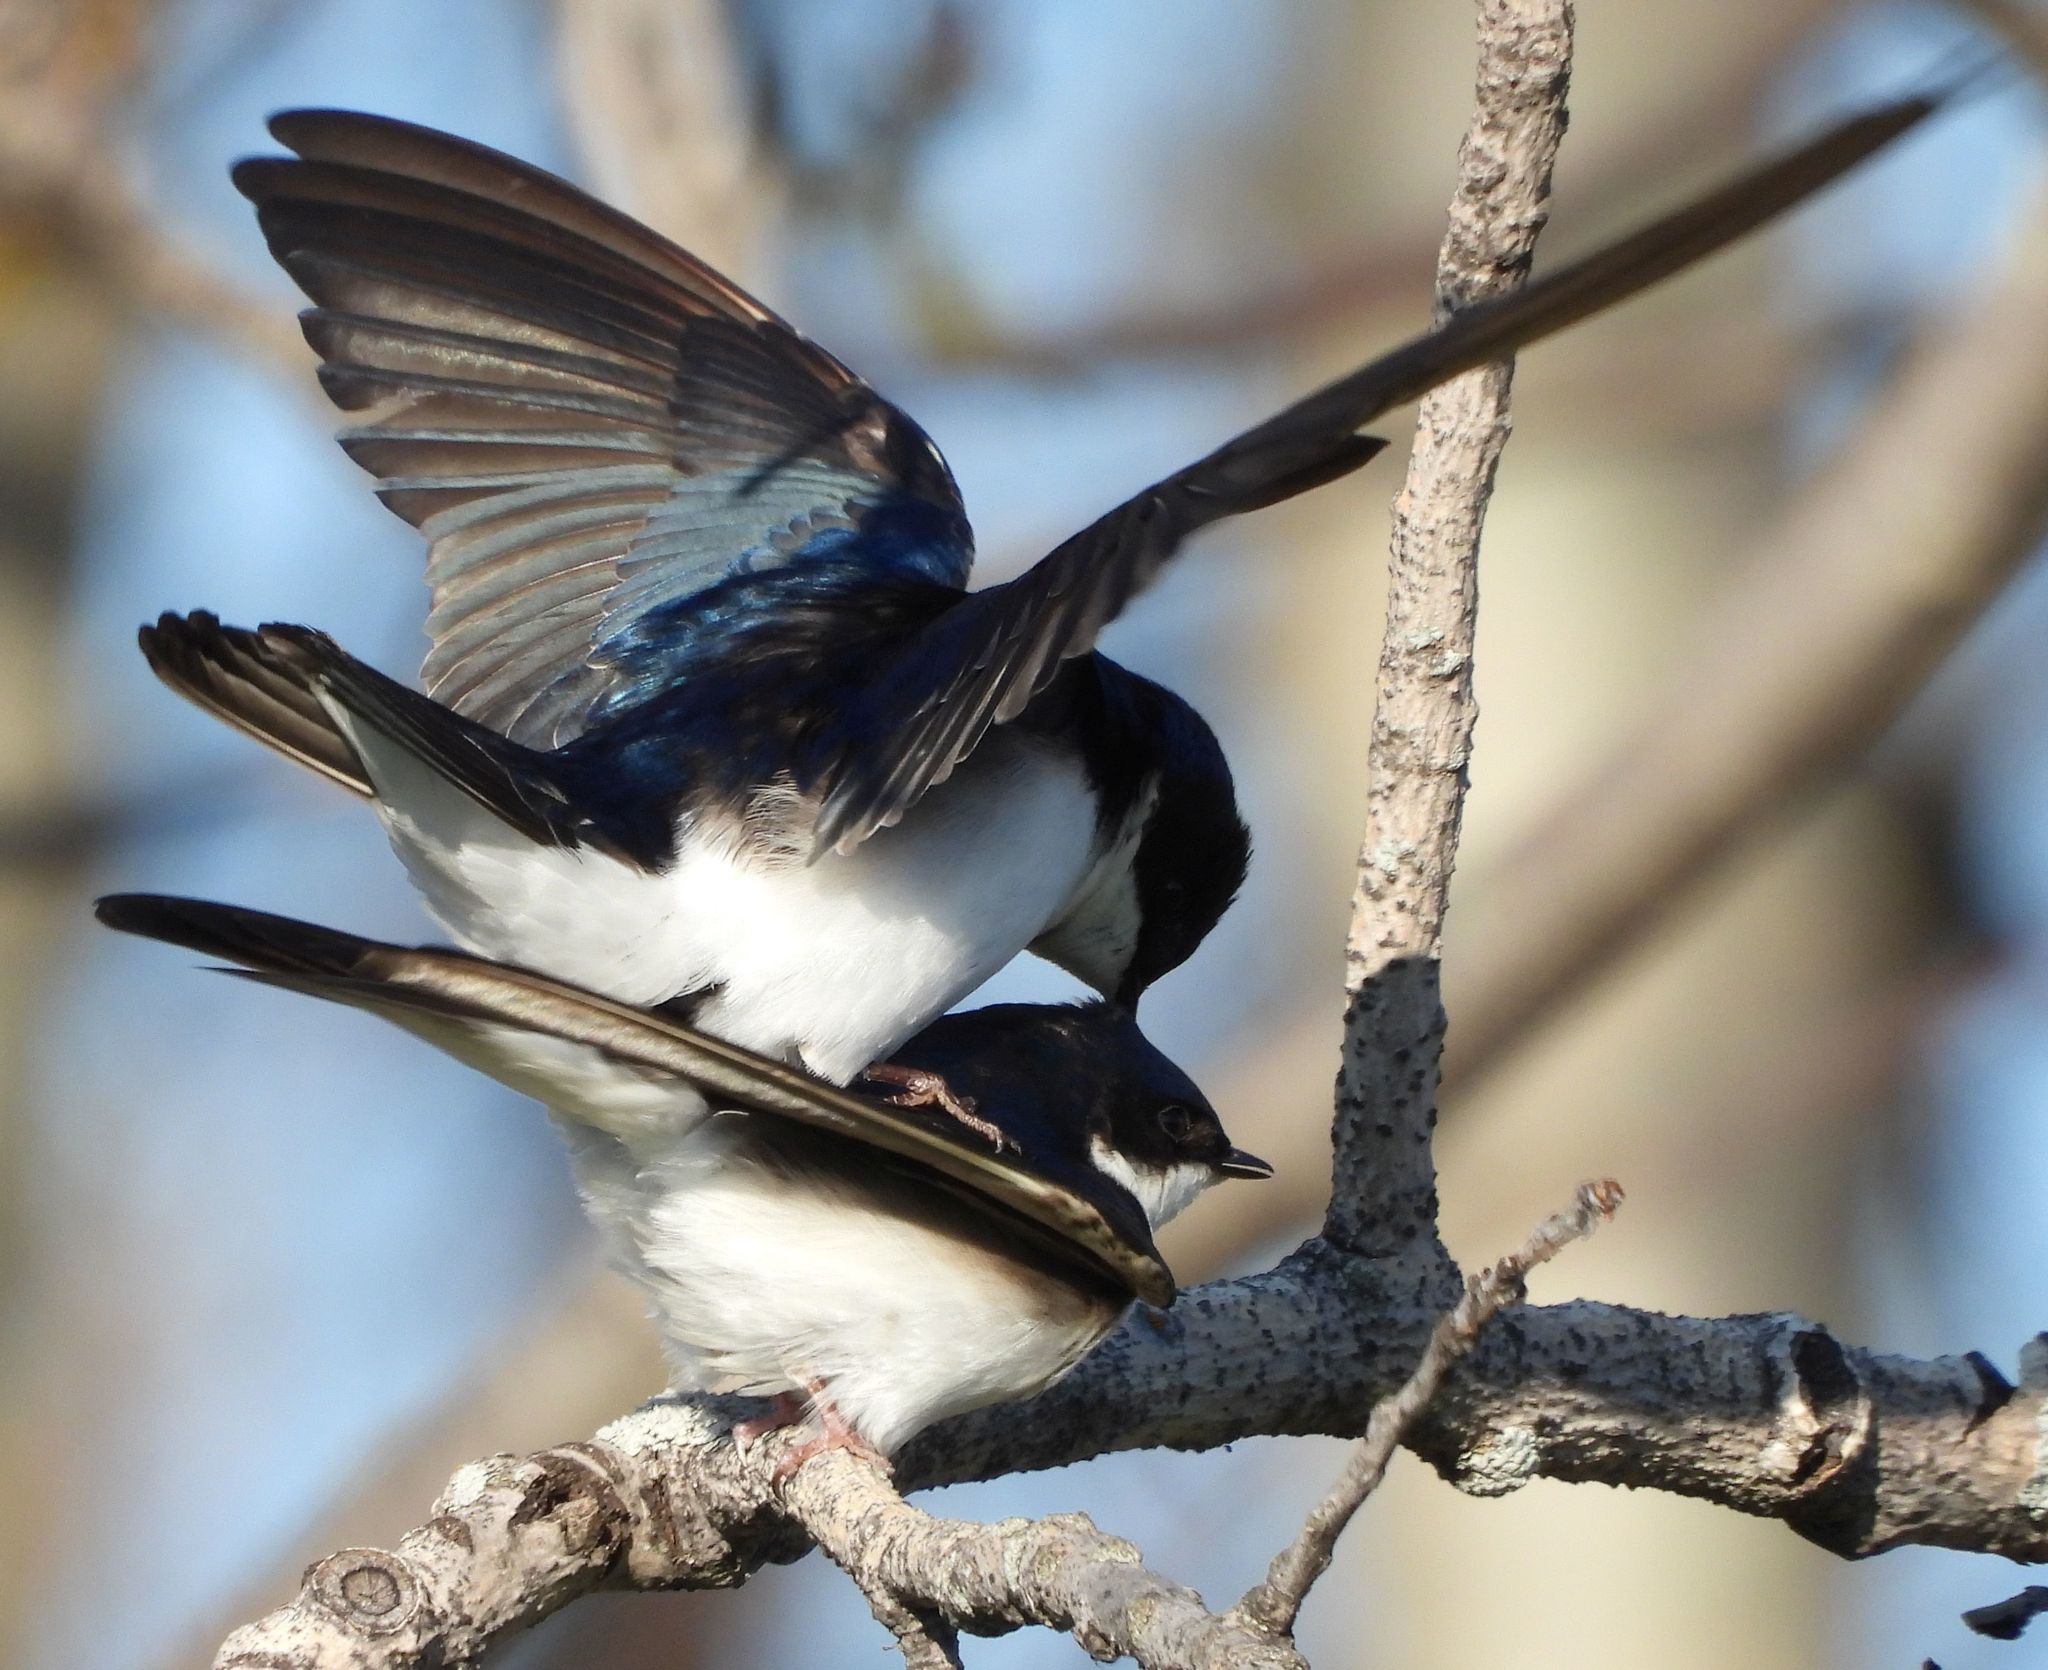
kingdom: Animalia
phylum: Chordata
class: Aves
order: Passeriformes
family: Hirundinidae
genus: Tachycineta
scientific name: Tachycineta bicolor
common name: Tree swallow
